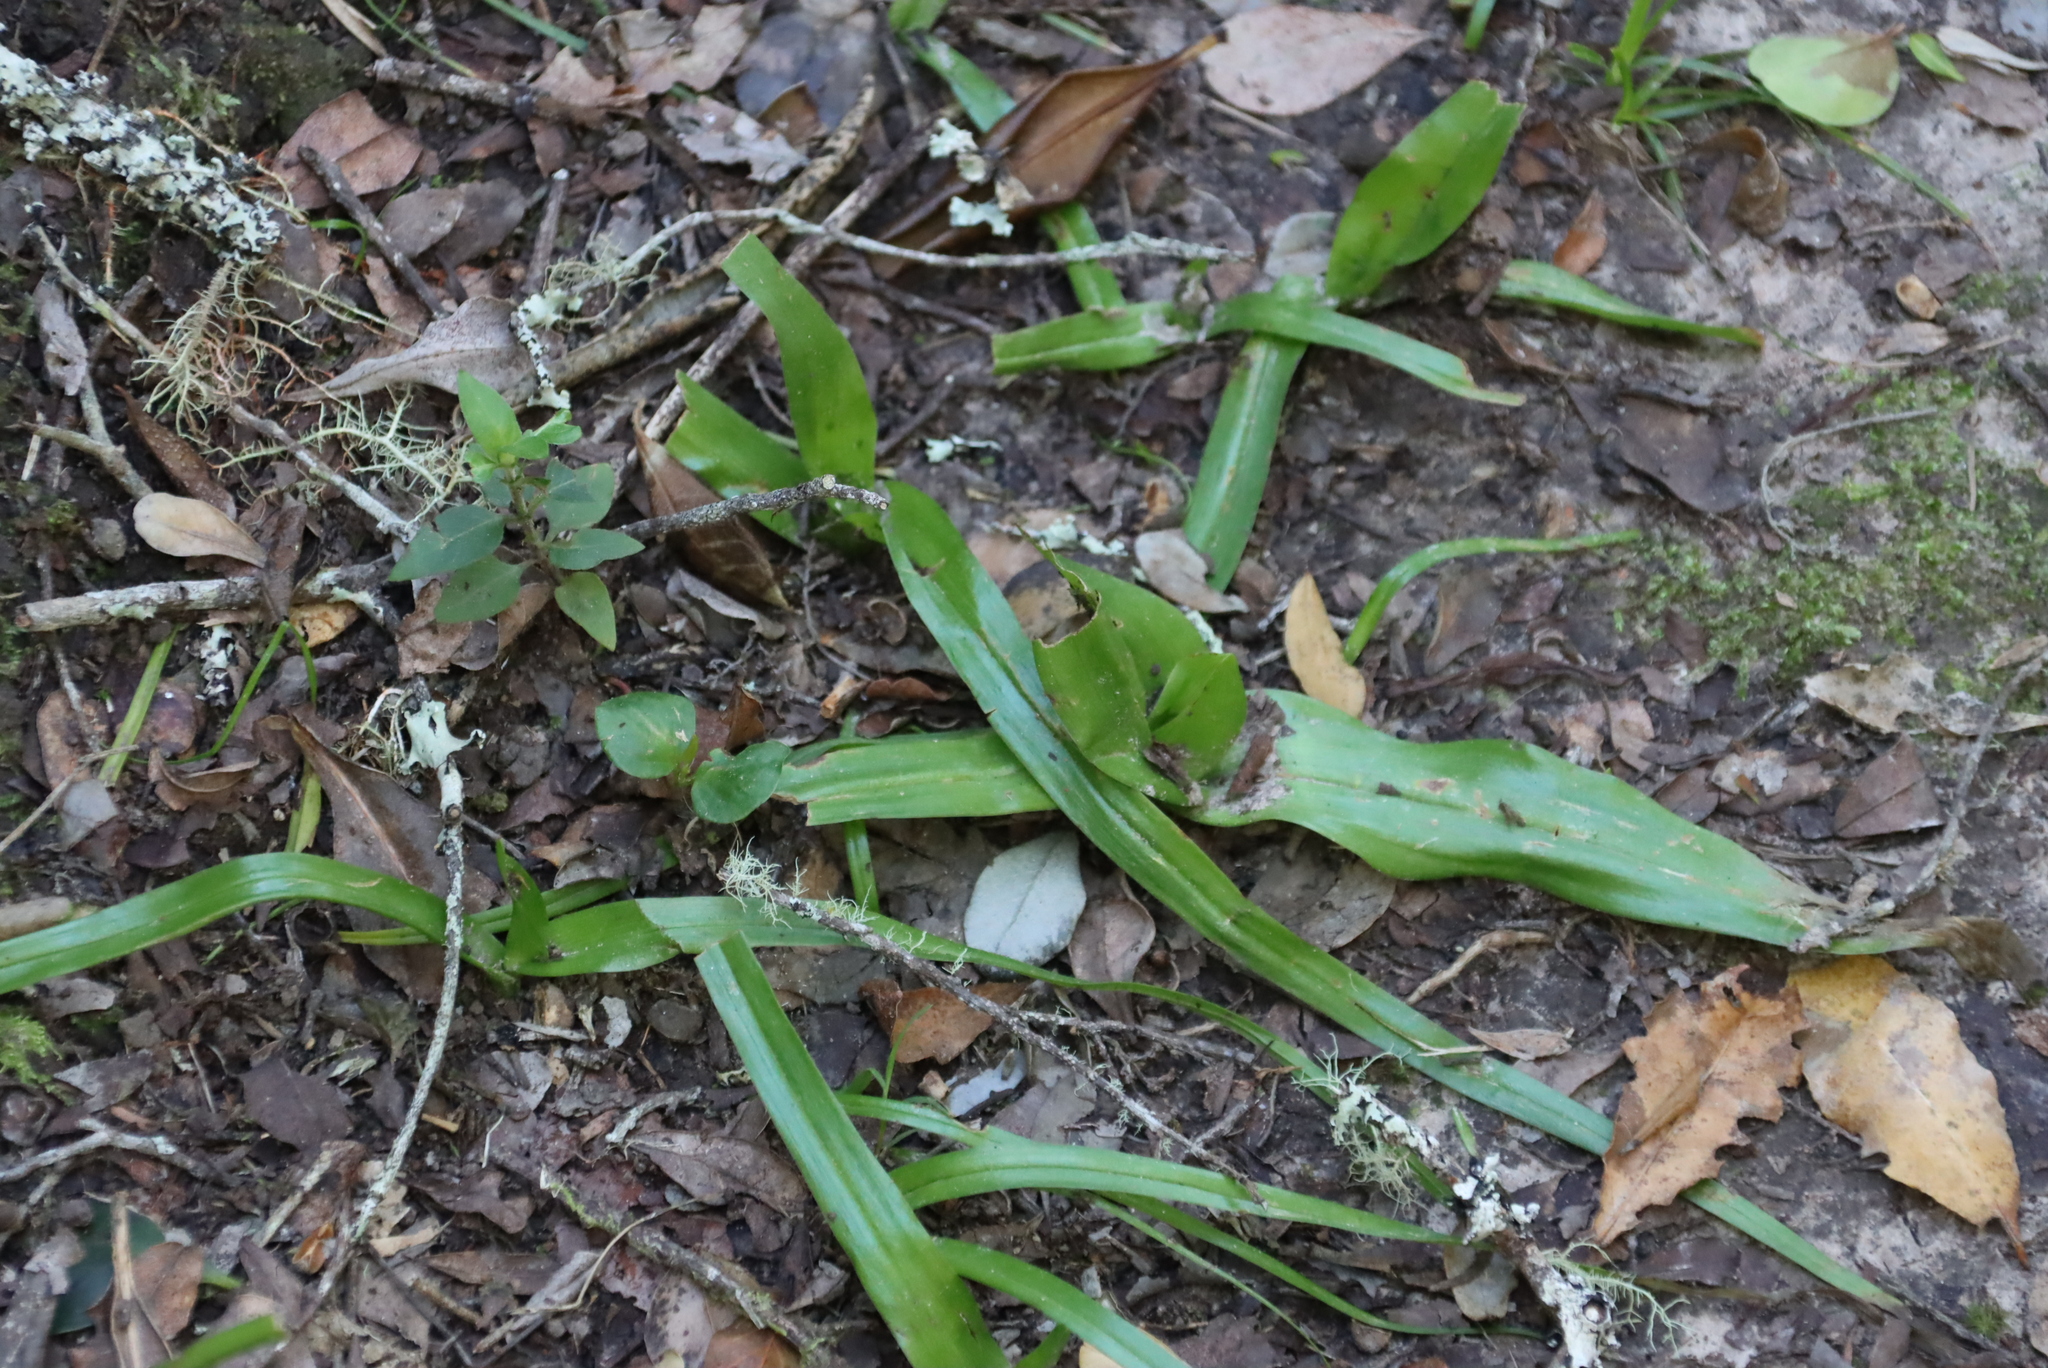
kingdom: Plantae
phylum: Tracheophyta
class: Liliopsida
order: Liliales
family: Colchicaceae
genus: Colchicum
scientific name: Colchicum eucomoides
